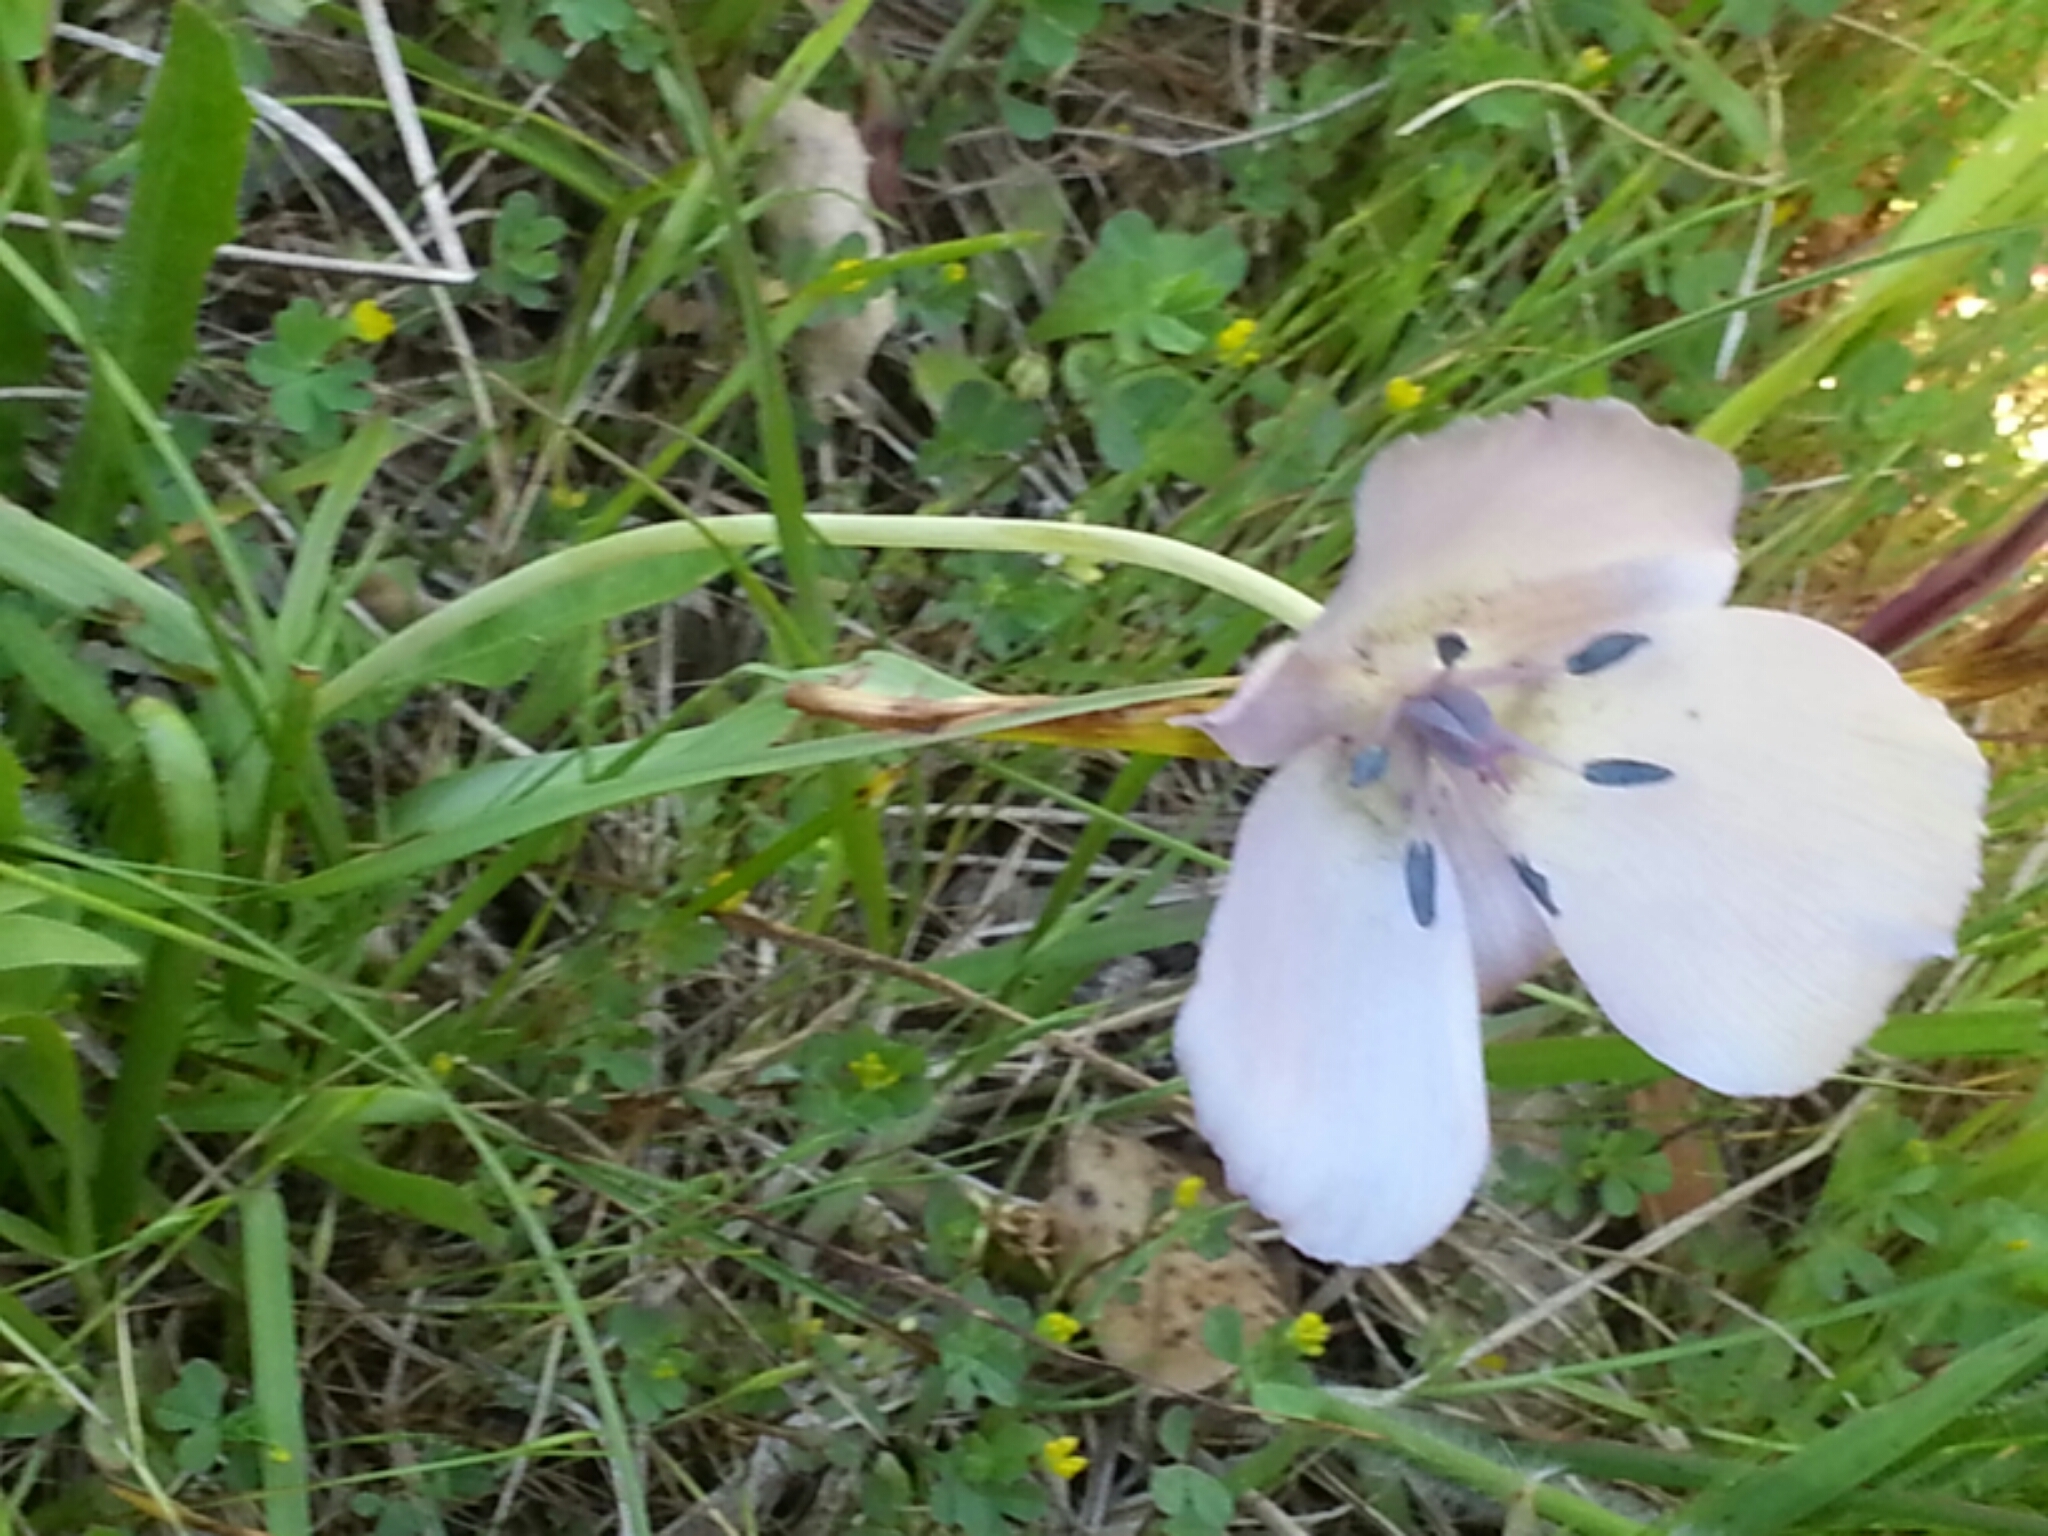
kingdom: Plantae
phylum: Tracheophyta
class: Liliopsida
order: Liliales
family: Liliaceae
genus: Calochortus
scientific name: Calochortus uniflorus
